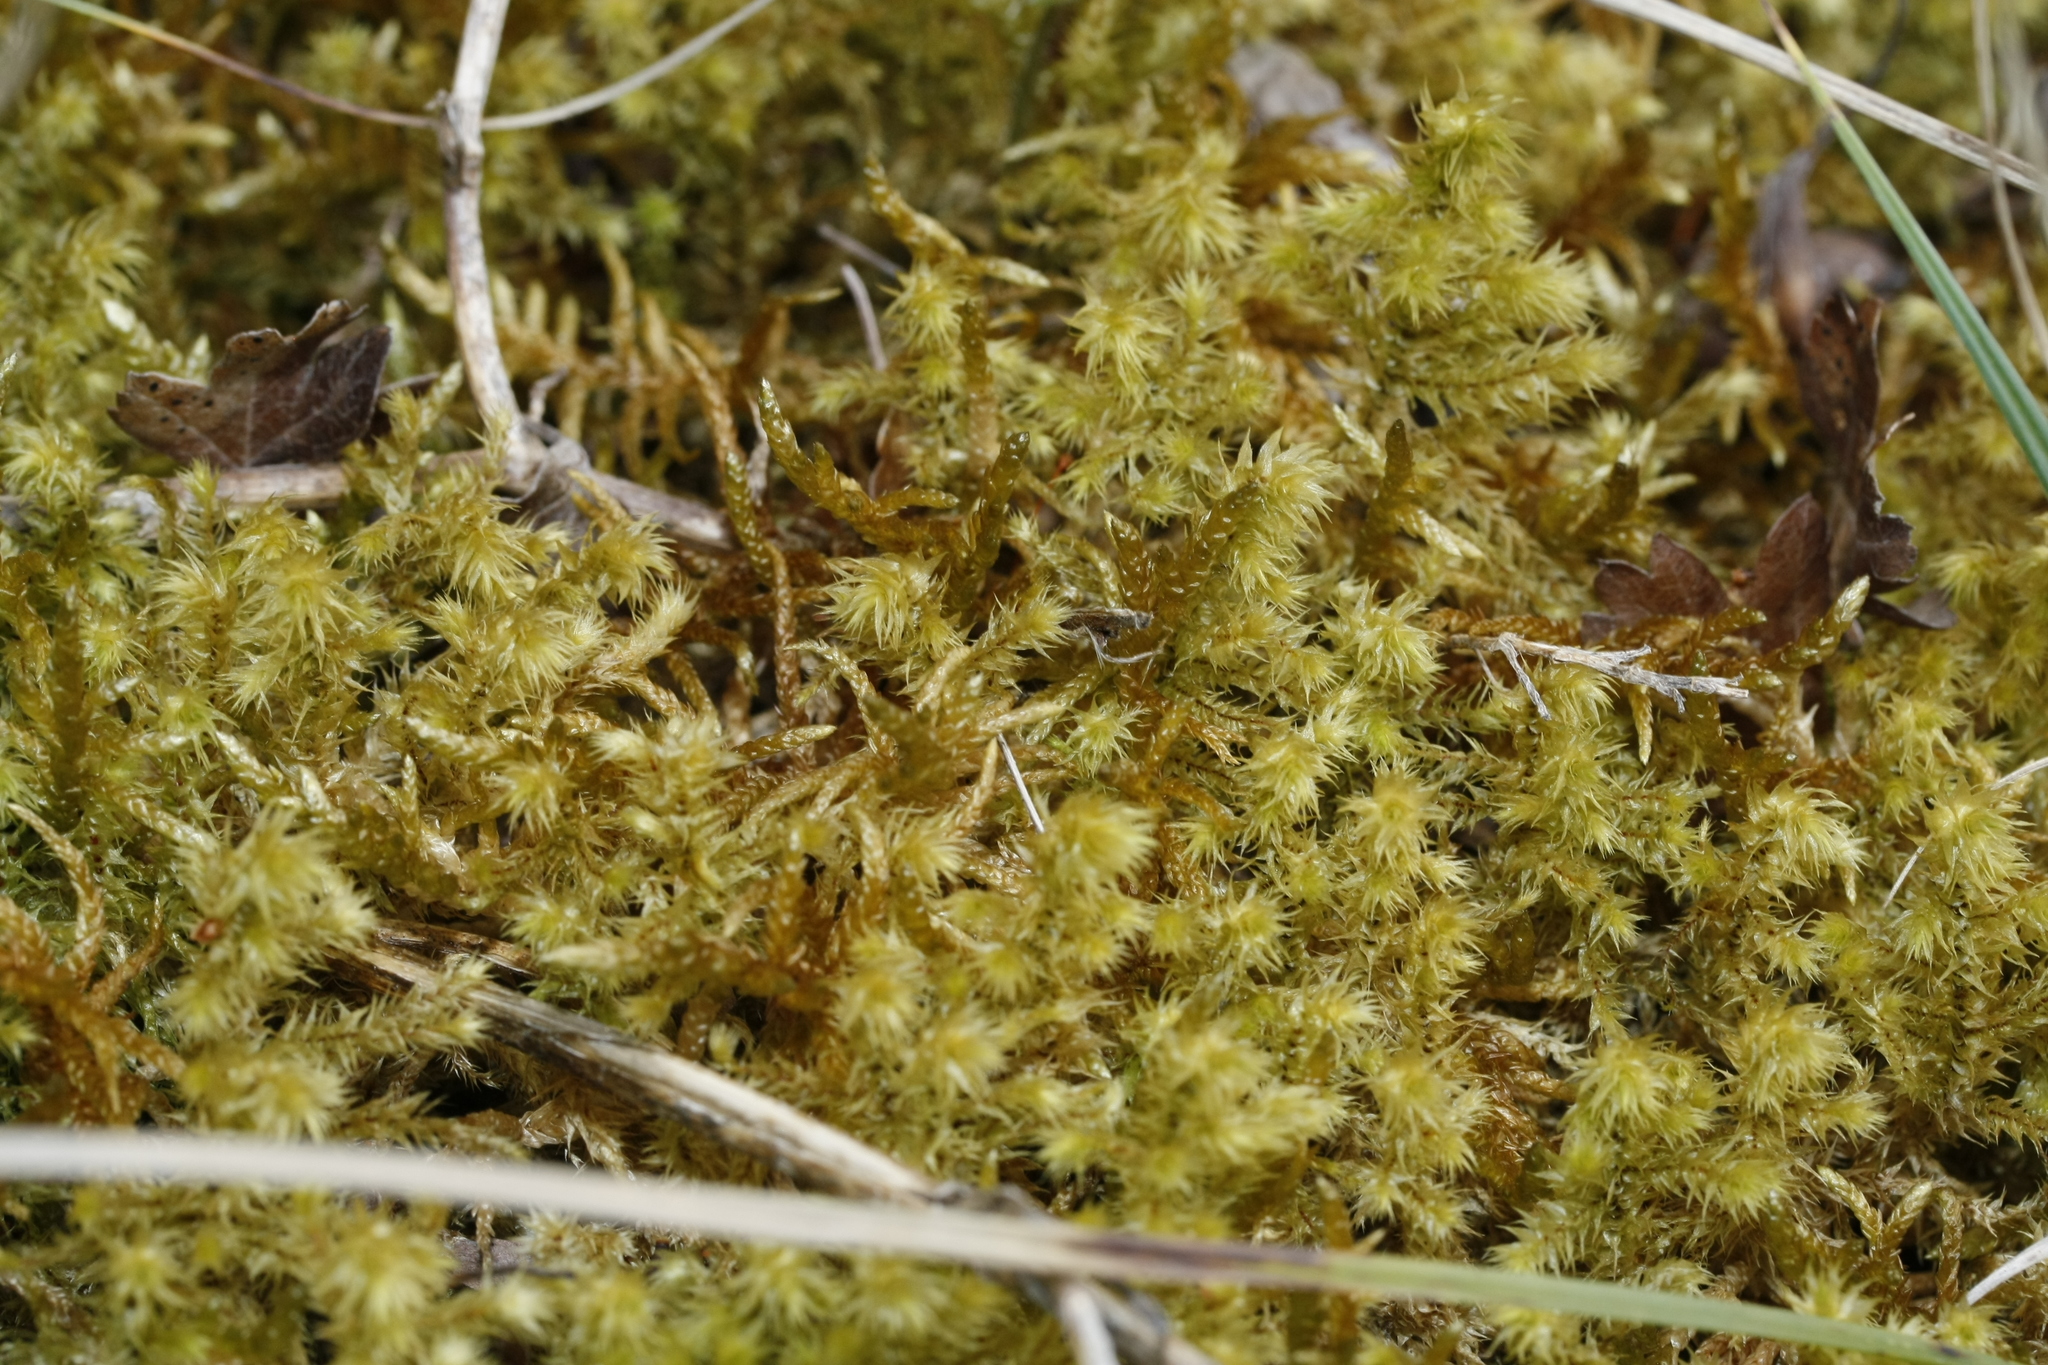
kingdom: Plantae
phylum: Bryophyta
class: Bryopsida
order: Hypnales
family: Hylocomiaceae
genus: Hylocomiadelphus
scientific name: Hylocomiadelphus triquetrus
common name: Rough goose neck moss
